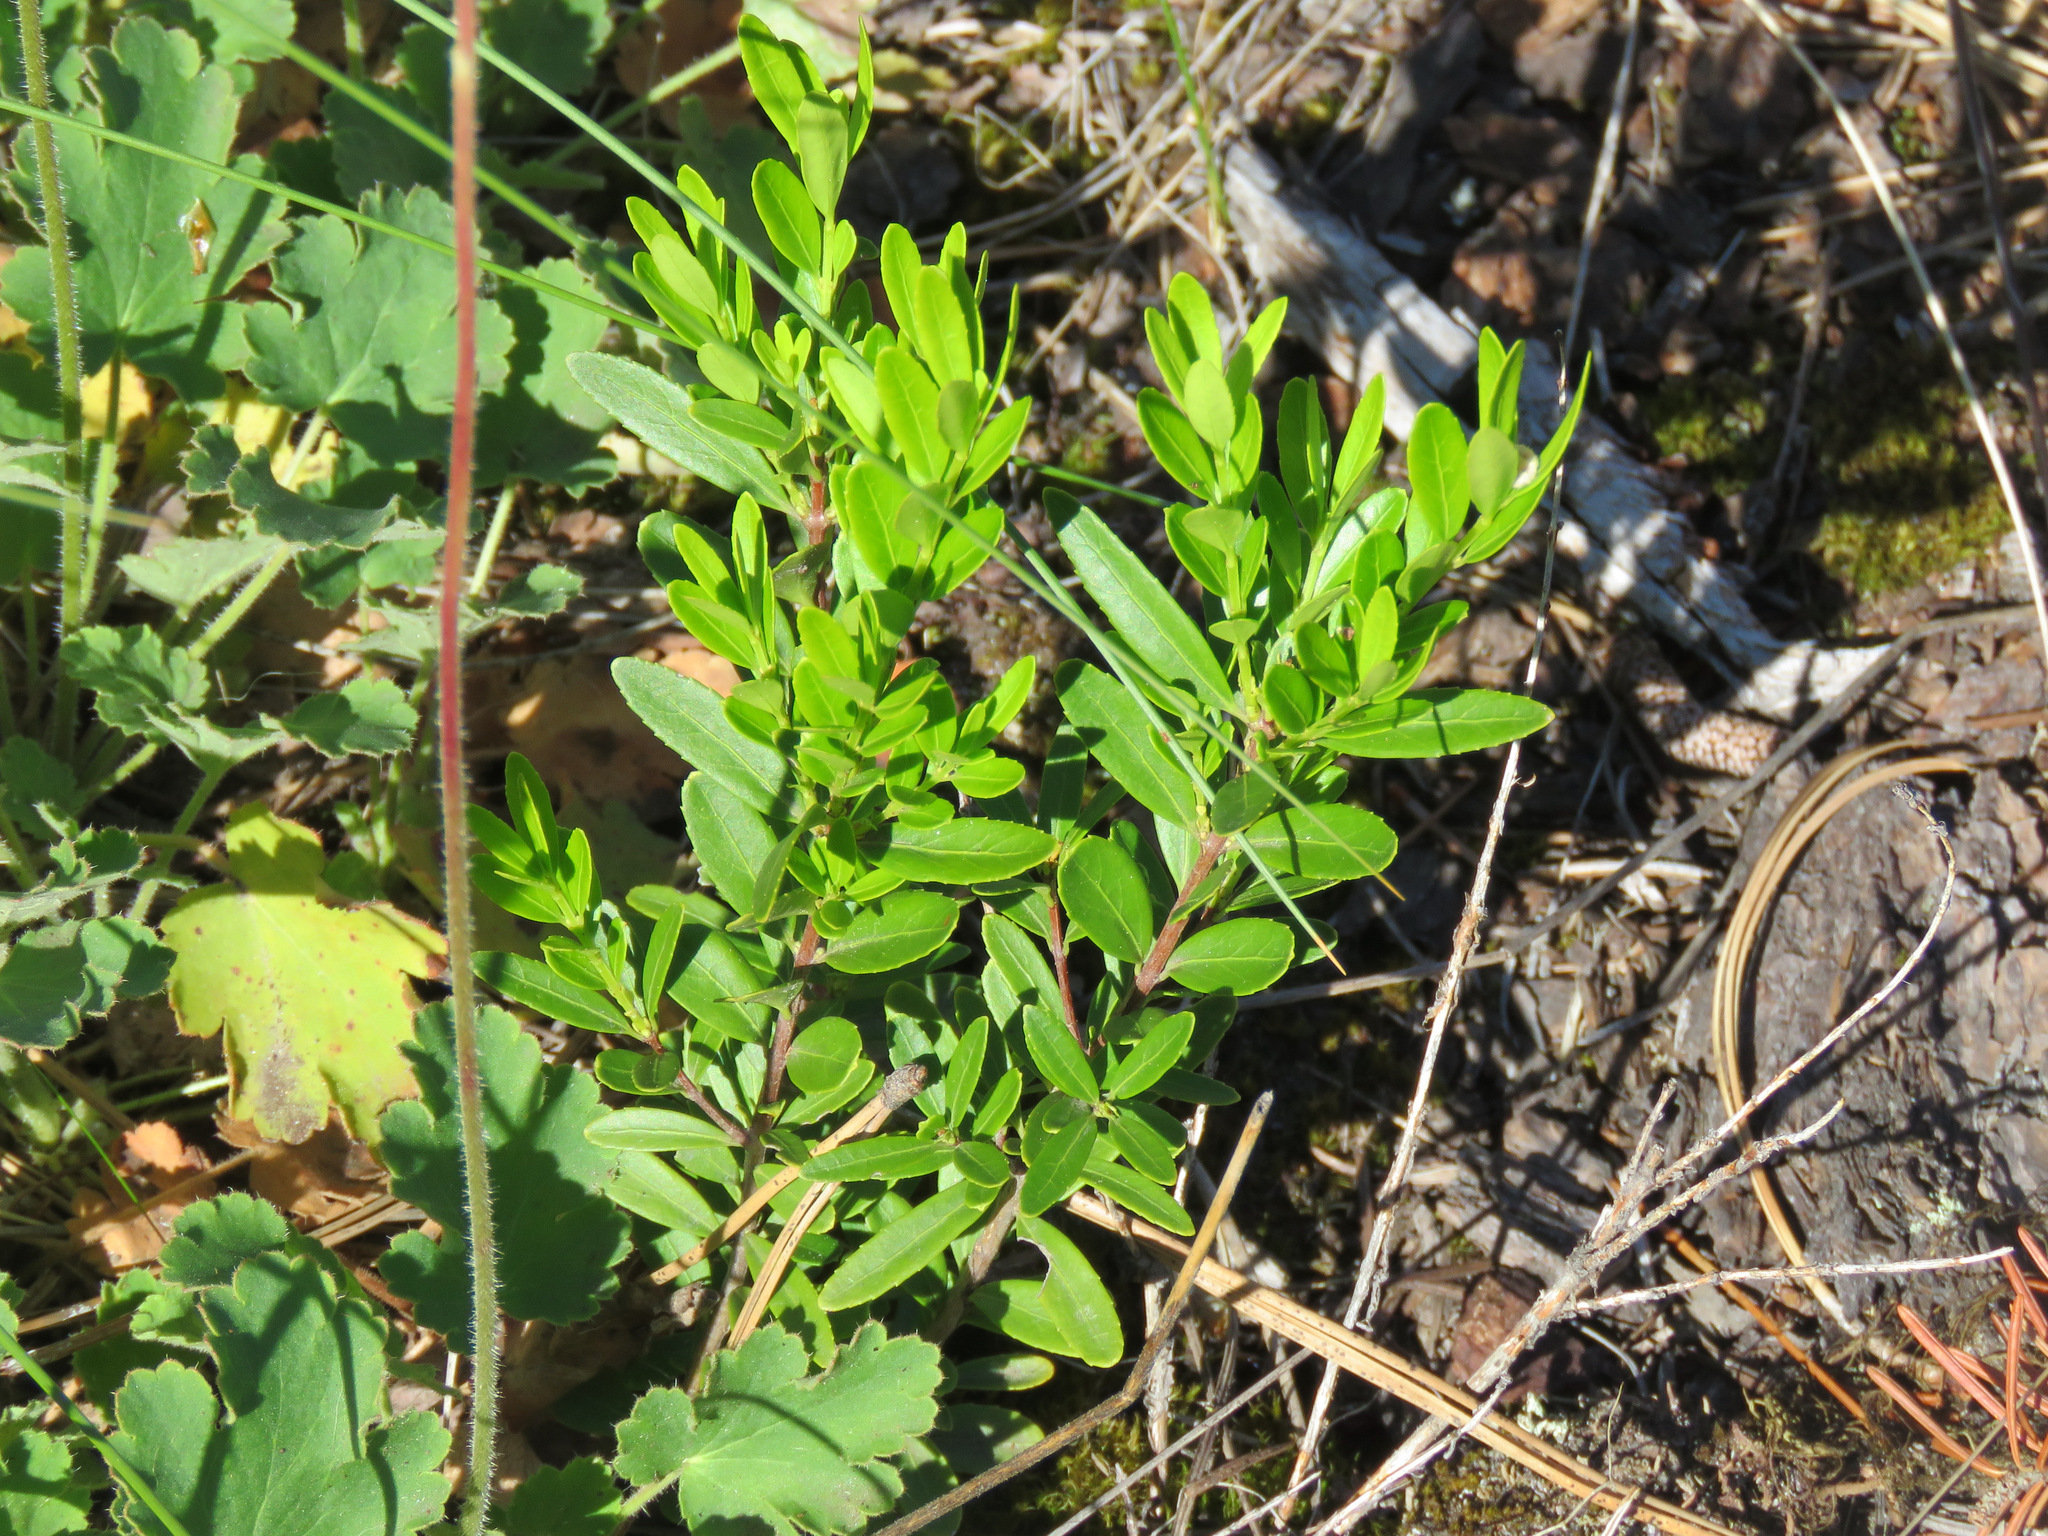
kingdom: Plantae
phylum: Tracheophyta
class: Magnoliopsida
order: Celastrales
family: Celastraceae
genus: Paxistima
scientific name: Paxistima myrsinites
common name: Mountain-lover
